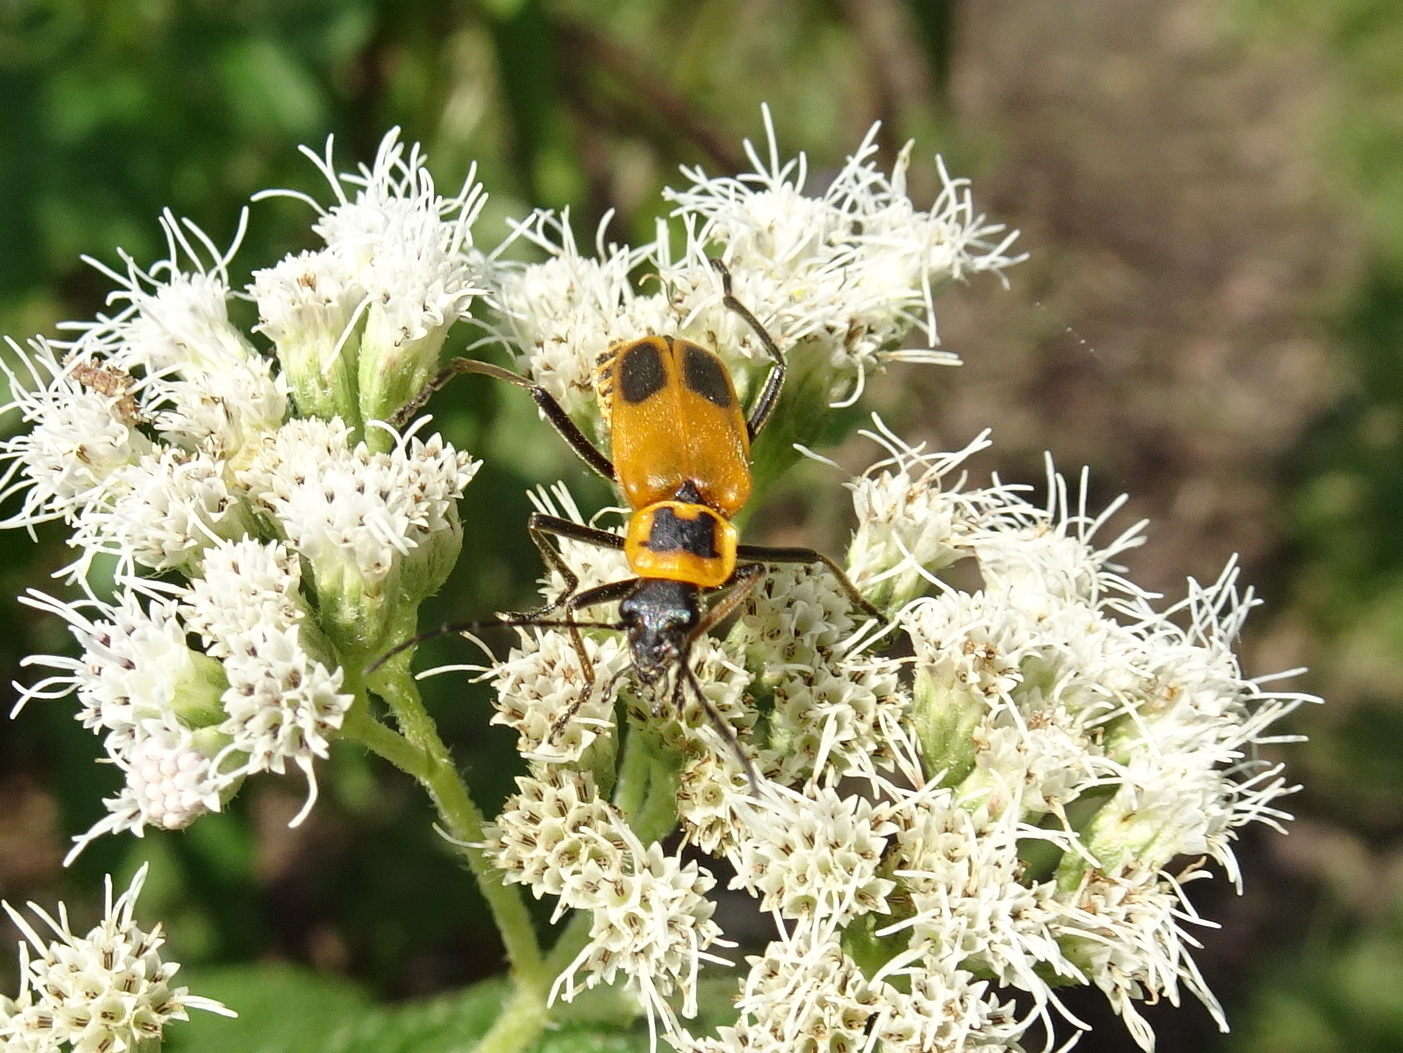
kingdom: Animalia
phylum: Arthropoda
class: Insecta
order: Coleoptera
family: Cantharidae
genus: Chauliognathus
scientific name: Chauliognathus pensylvanicus
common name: Goldenrod soldier beetle
